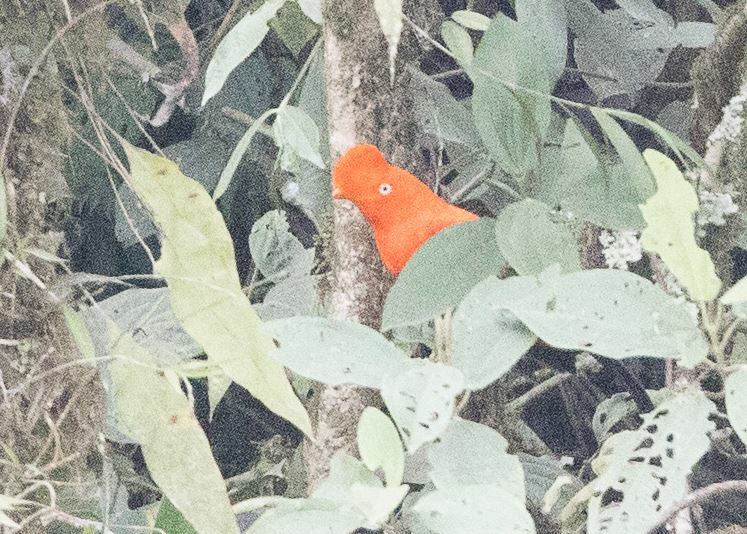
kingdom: Animalia
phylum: Chordata
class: Aves
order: Passeriformes
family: Cotingidae
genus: Rupicola
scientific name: Rupicola peruvianus
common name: Andean cock-of-the-rock
